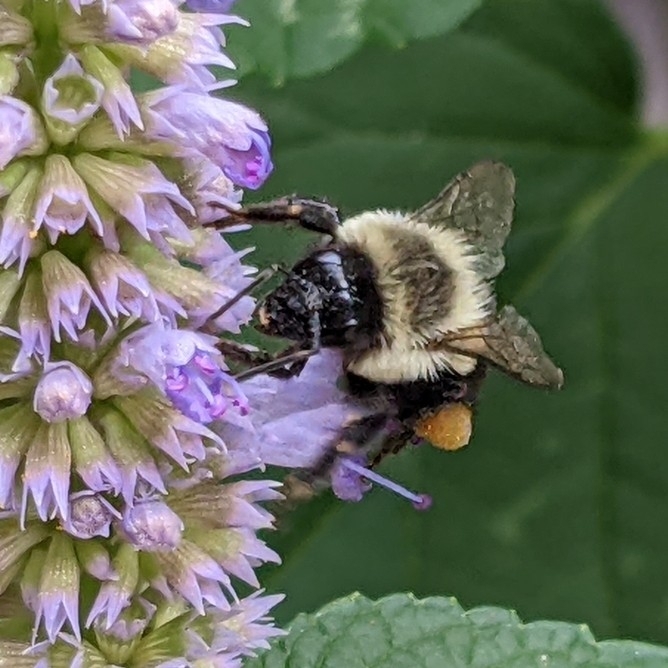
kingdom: Animalia
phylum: Arthropoda
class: Insecta
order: Hymenoptera
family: Apidae
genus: Bombus
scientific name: Bombus impatiens
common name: Common eastern bumble bee
